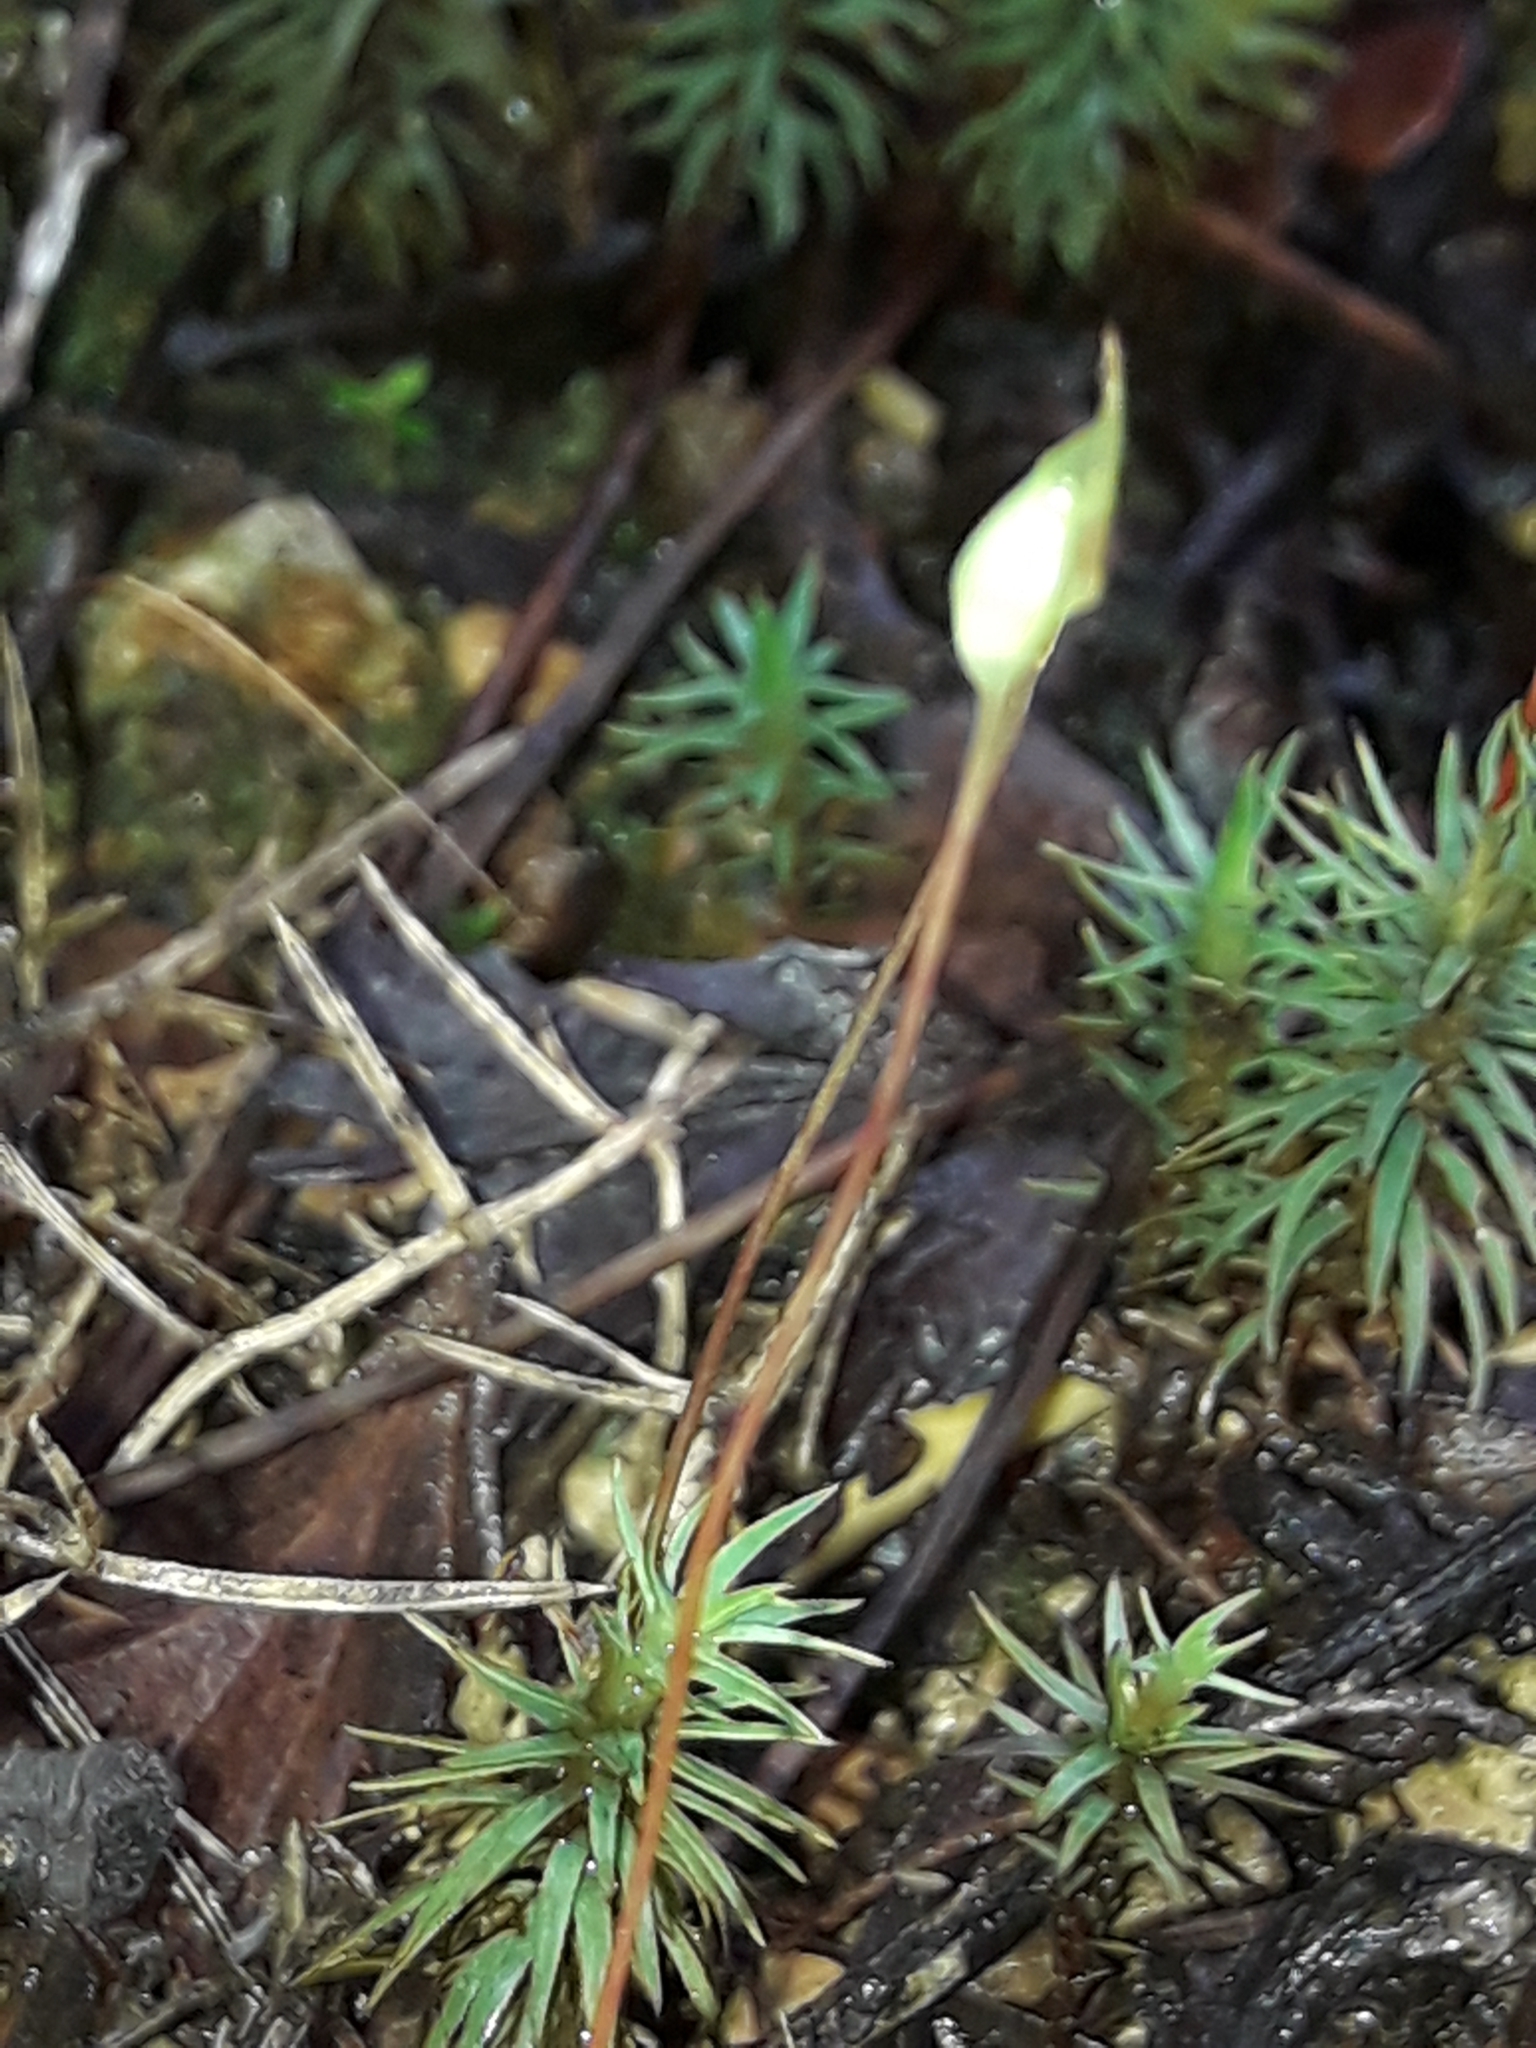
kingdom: Plantae
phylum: Bryophyta
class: Polytrichopsida
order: Polytrichales
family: Polytrichaceae
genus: Polytrichadelphus
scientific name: Polytrichadelphus magellanicus
